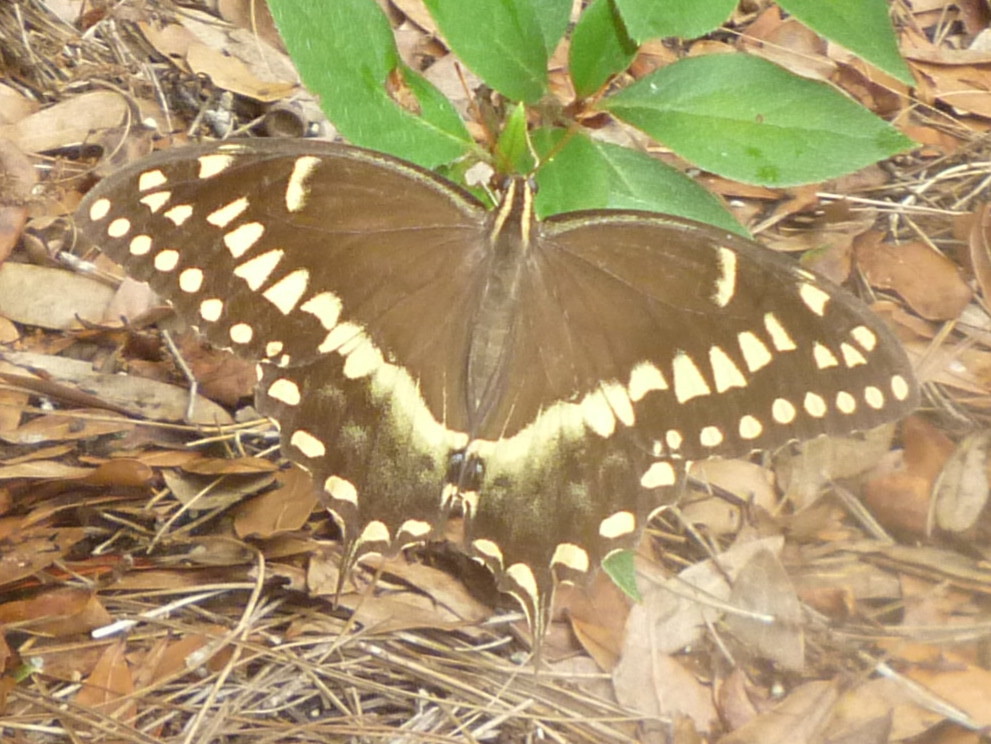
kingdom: Animalia
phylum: Arthropoda
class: Insecta
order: Lepidoptera
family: Papilionidae
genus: Papilio
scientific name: Papilio palamedes
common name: Palamedes swallowtail
